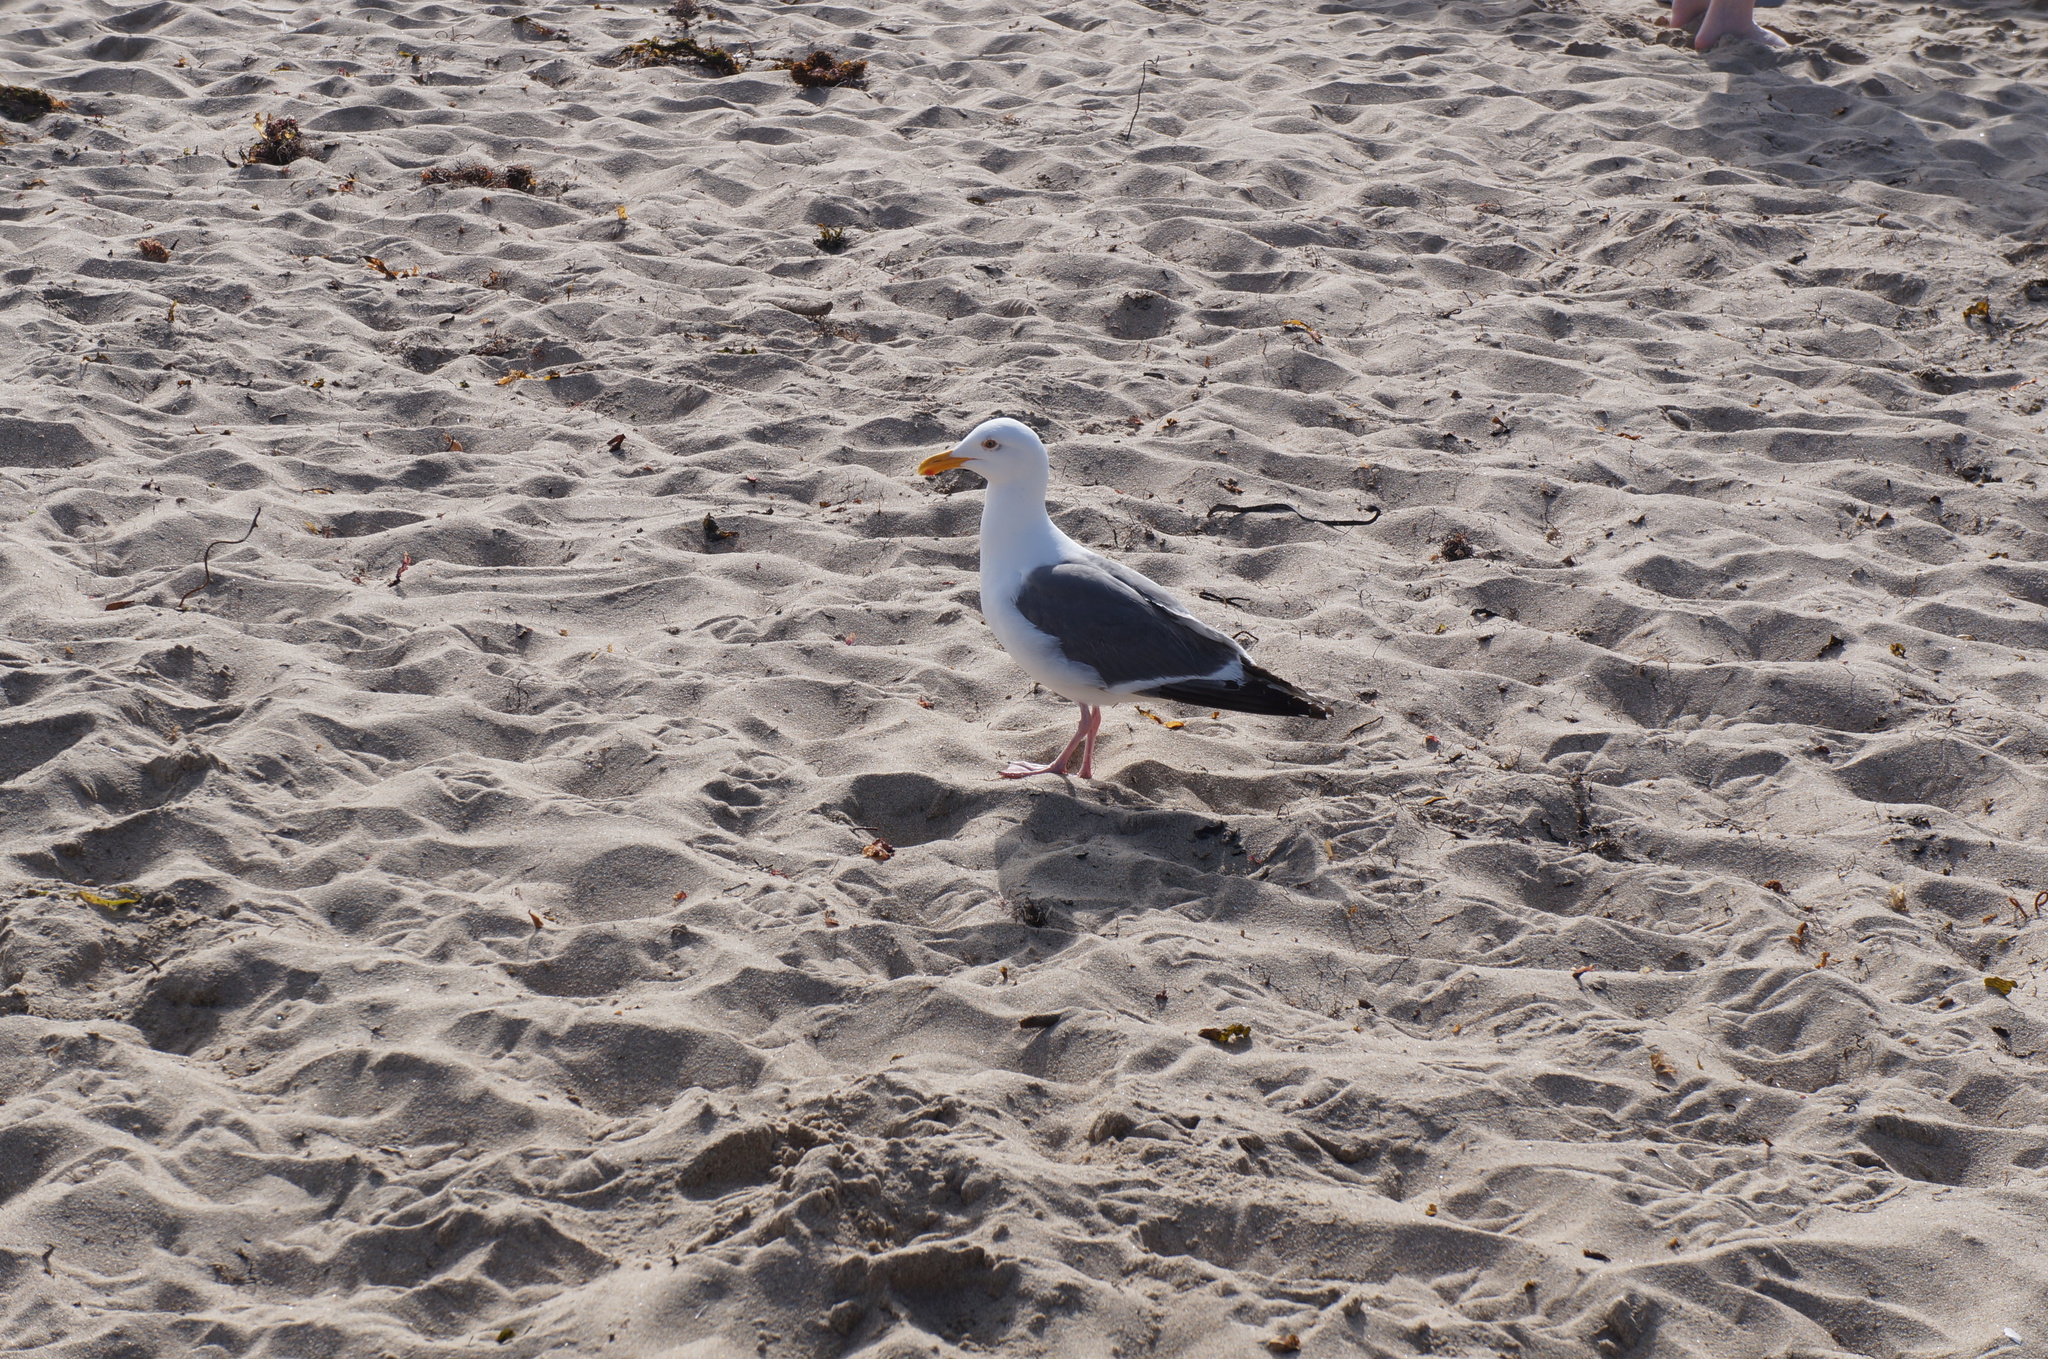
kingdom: Animalia
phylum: Chordata
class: Aves
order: Charadriiformes
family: Laridae
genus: Larus
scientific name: Larus occidentalis
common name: Western gull
